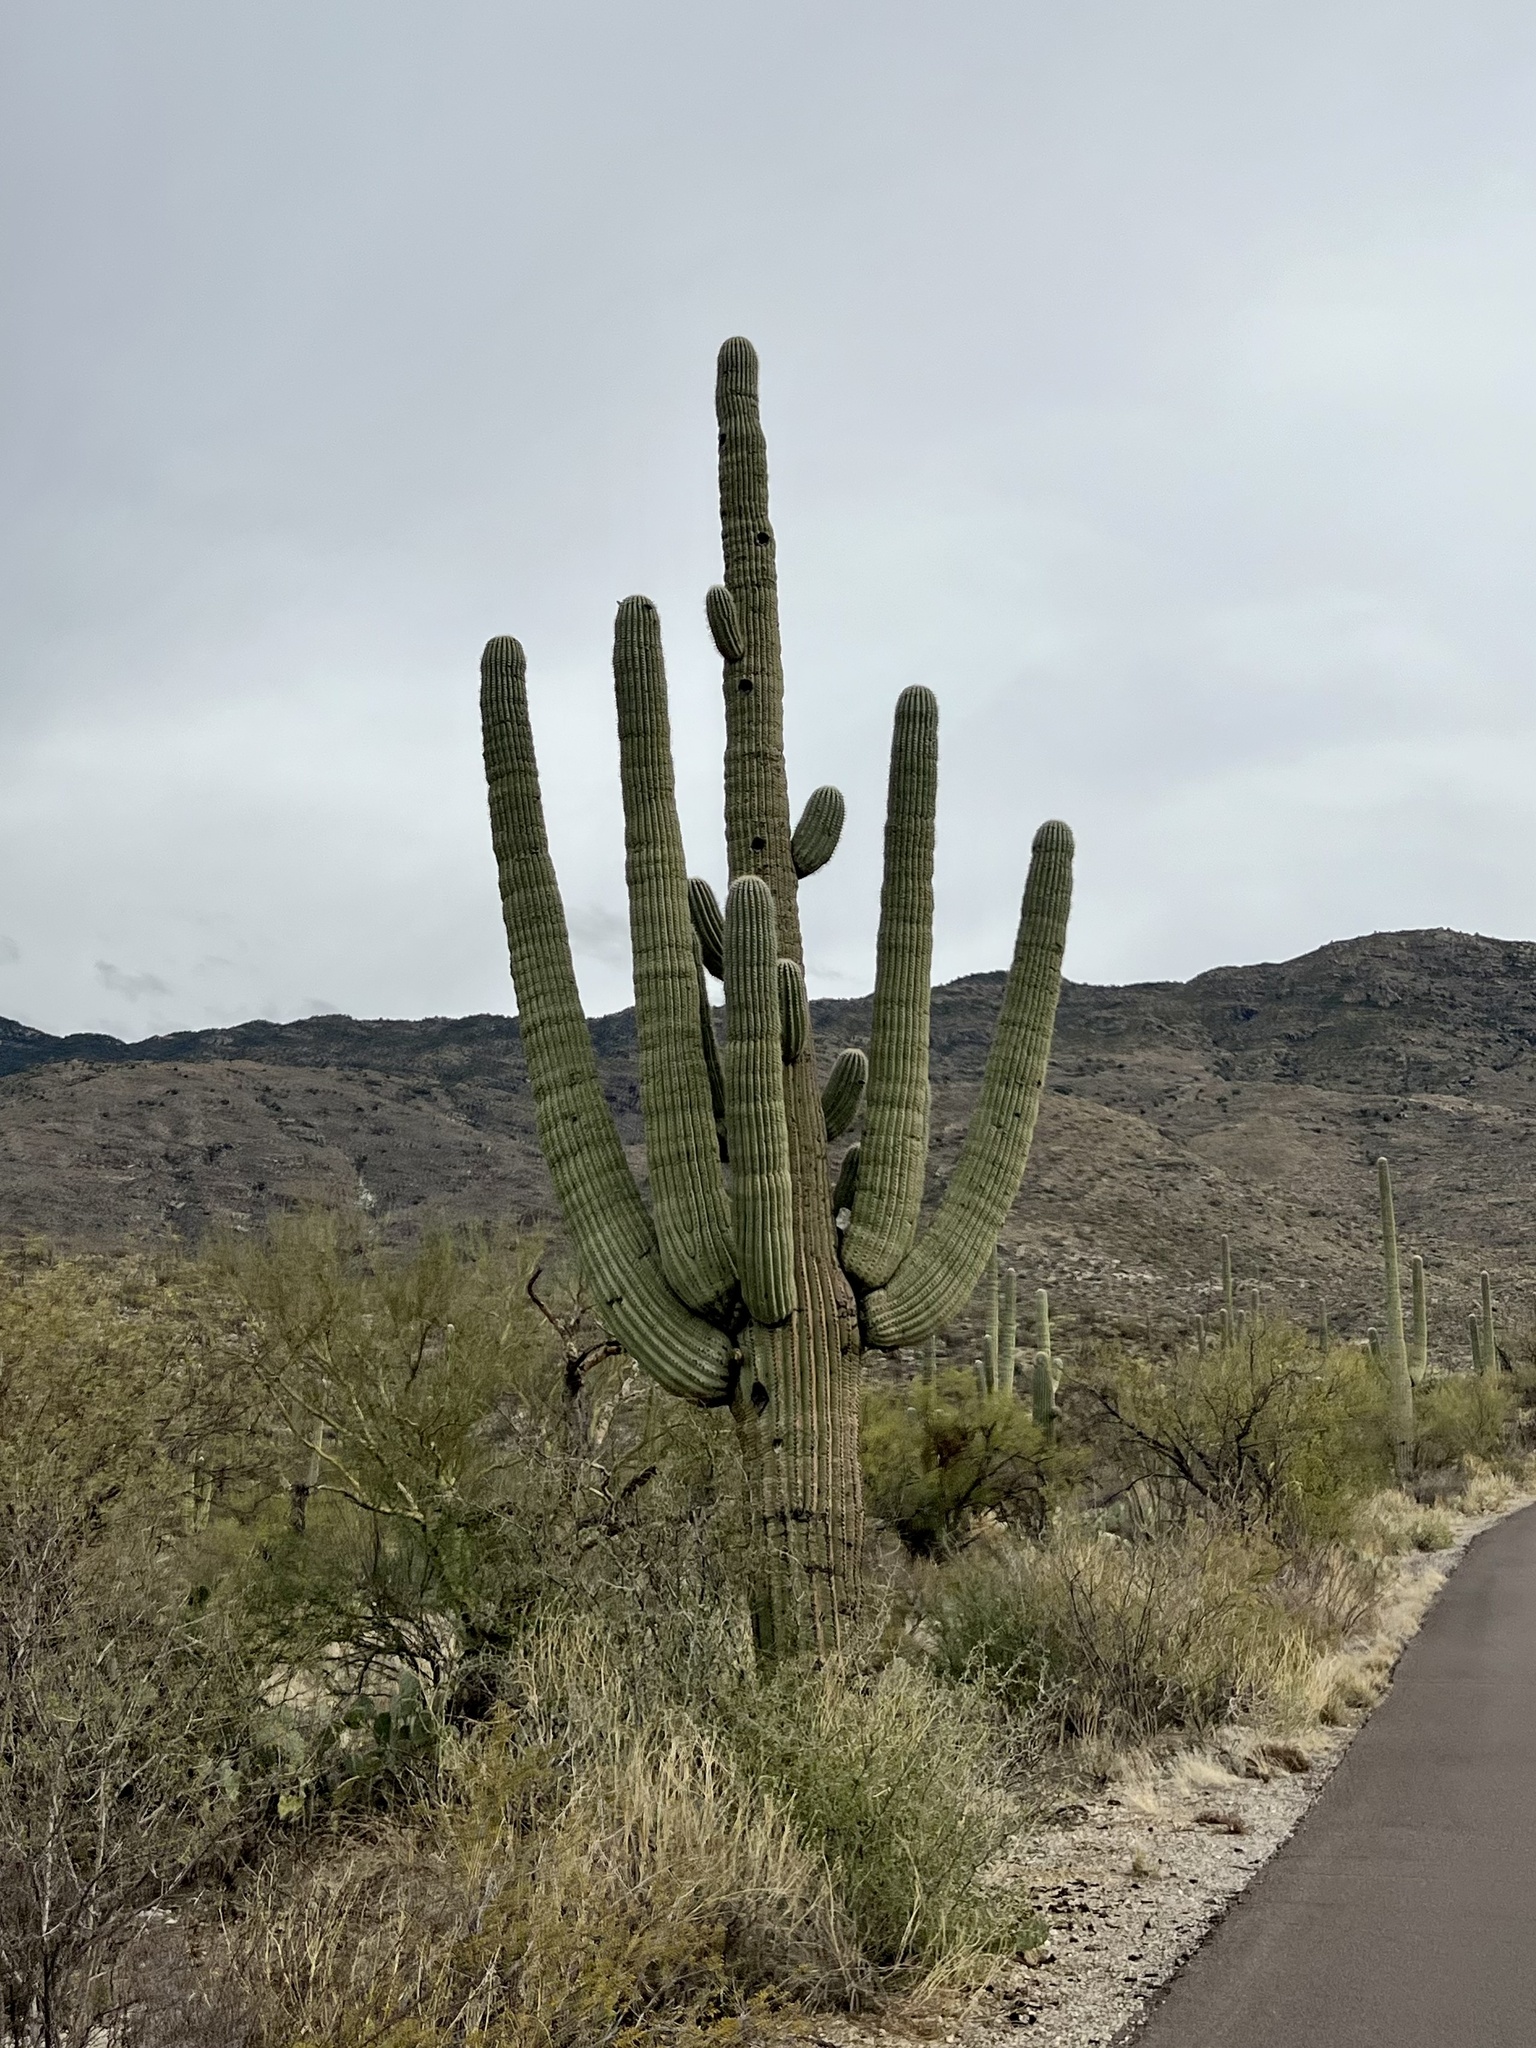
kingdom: Plantae
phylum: Tracheophyta
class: Magnoliopsida
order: Caryophyllales
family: Cactaceae
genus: Carnegiea
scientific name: Carnegiea gigantea
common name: Saguaro
